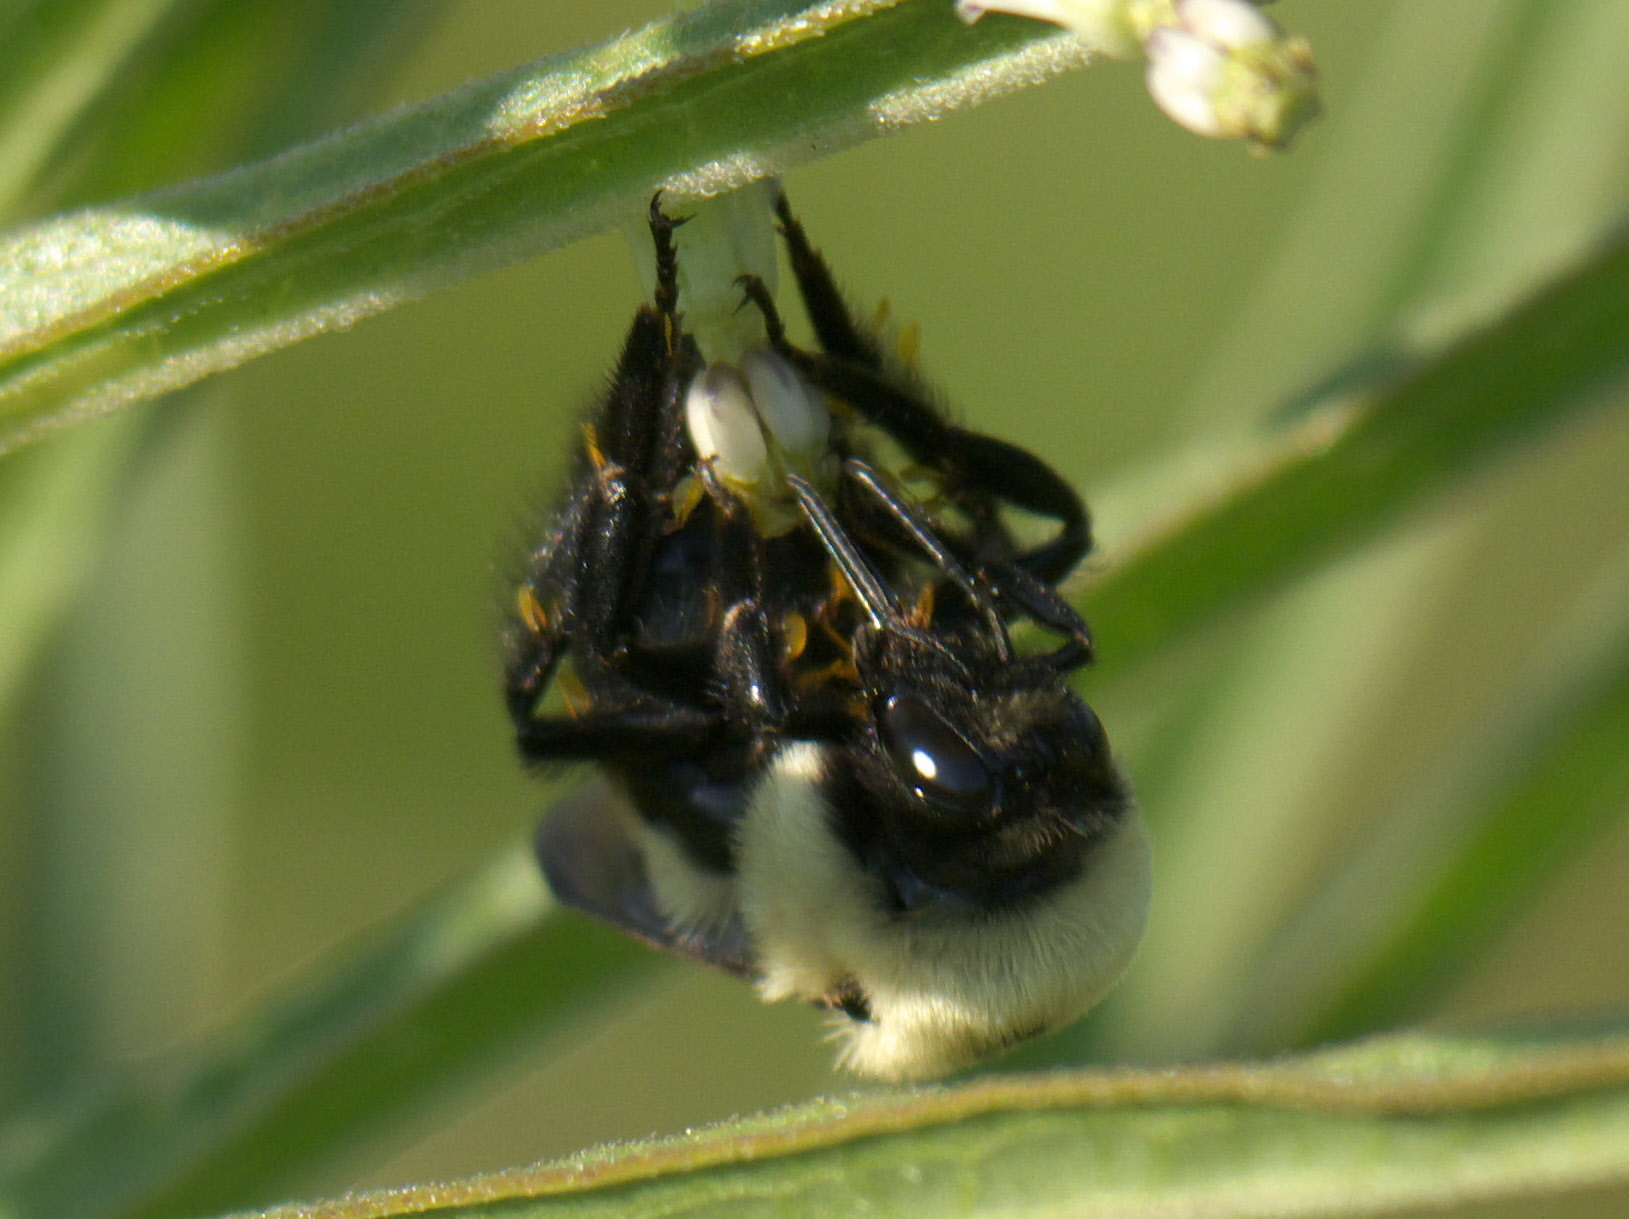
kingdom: Animalia
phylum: Arthropoda
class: Insecta
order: Hymenoptera
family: Apidae
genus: Bombus
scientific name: Bombus griseocollis
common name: Brown-belted bumble bee
